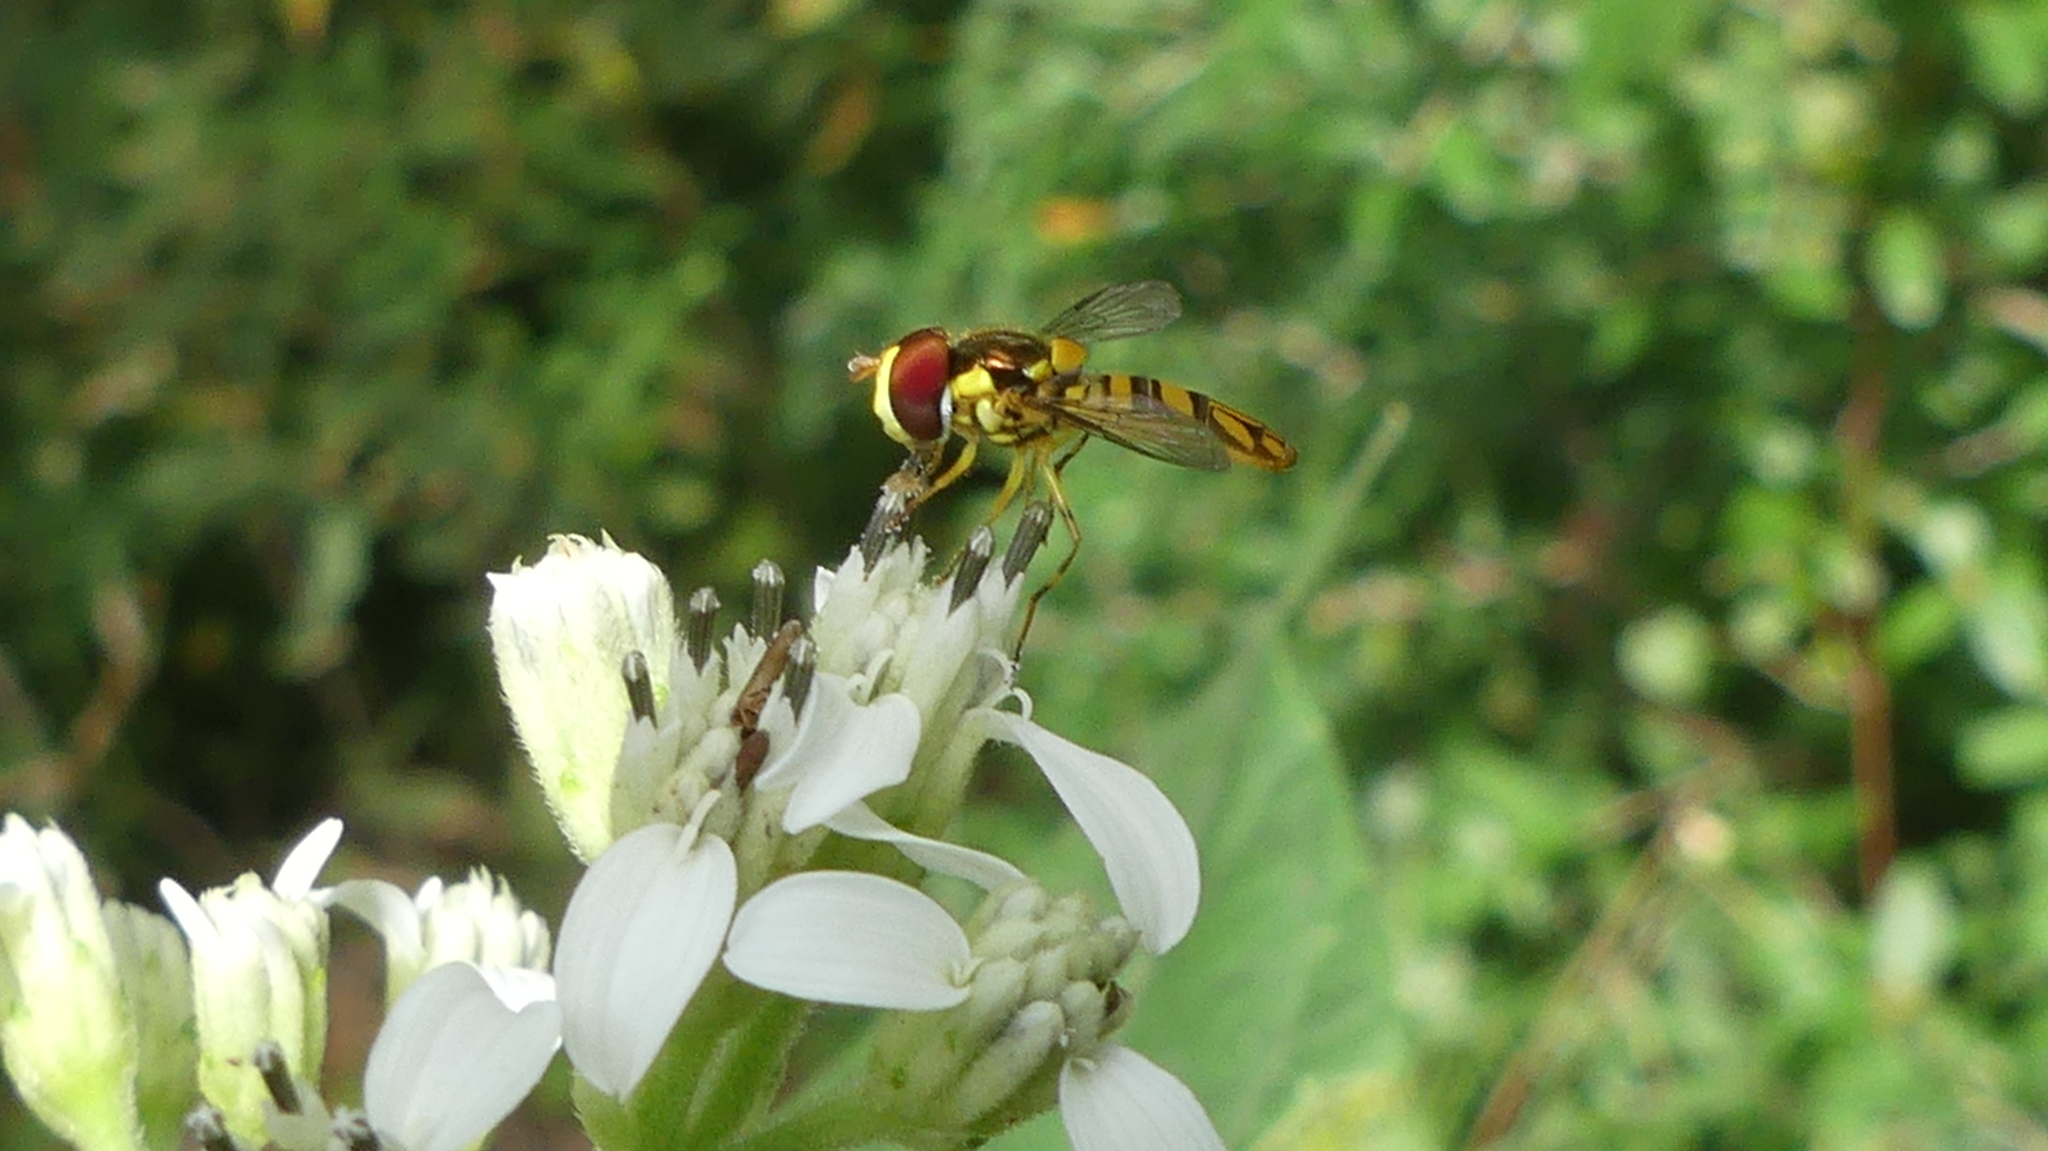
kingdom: Animalia
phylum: Arthropoda
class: Insecta
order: Diptera
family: Syrphidae
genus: Allograpta
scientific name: Allograpta obliqua
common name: Common oblique syrphid
